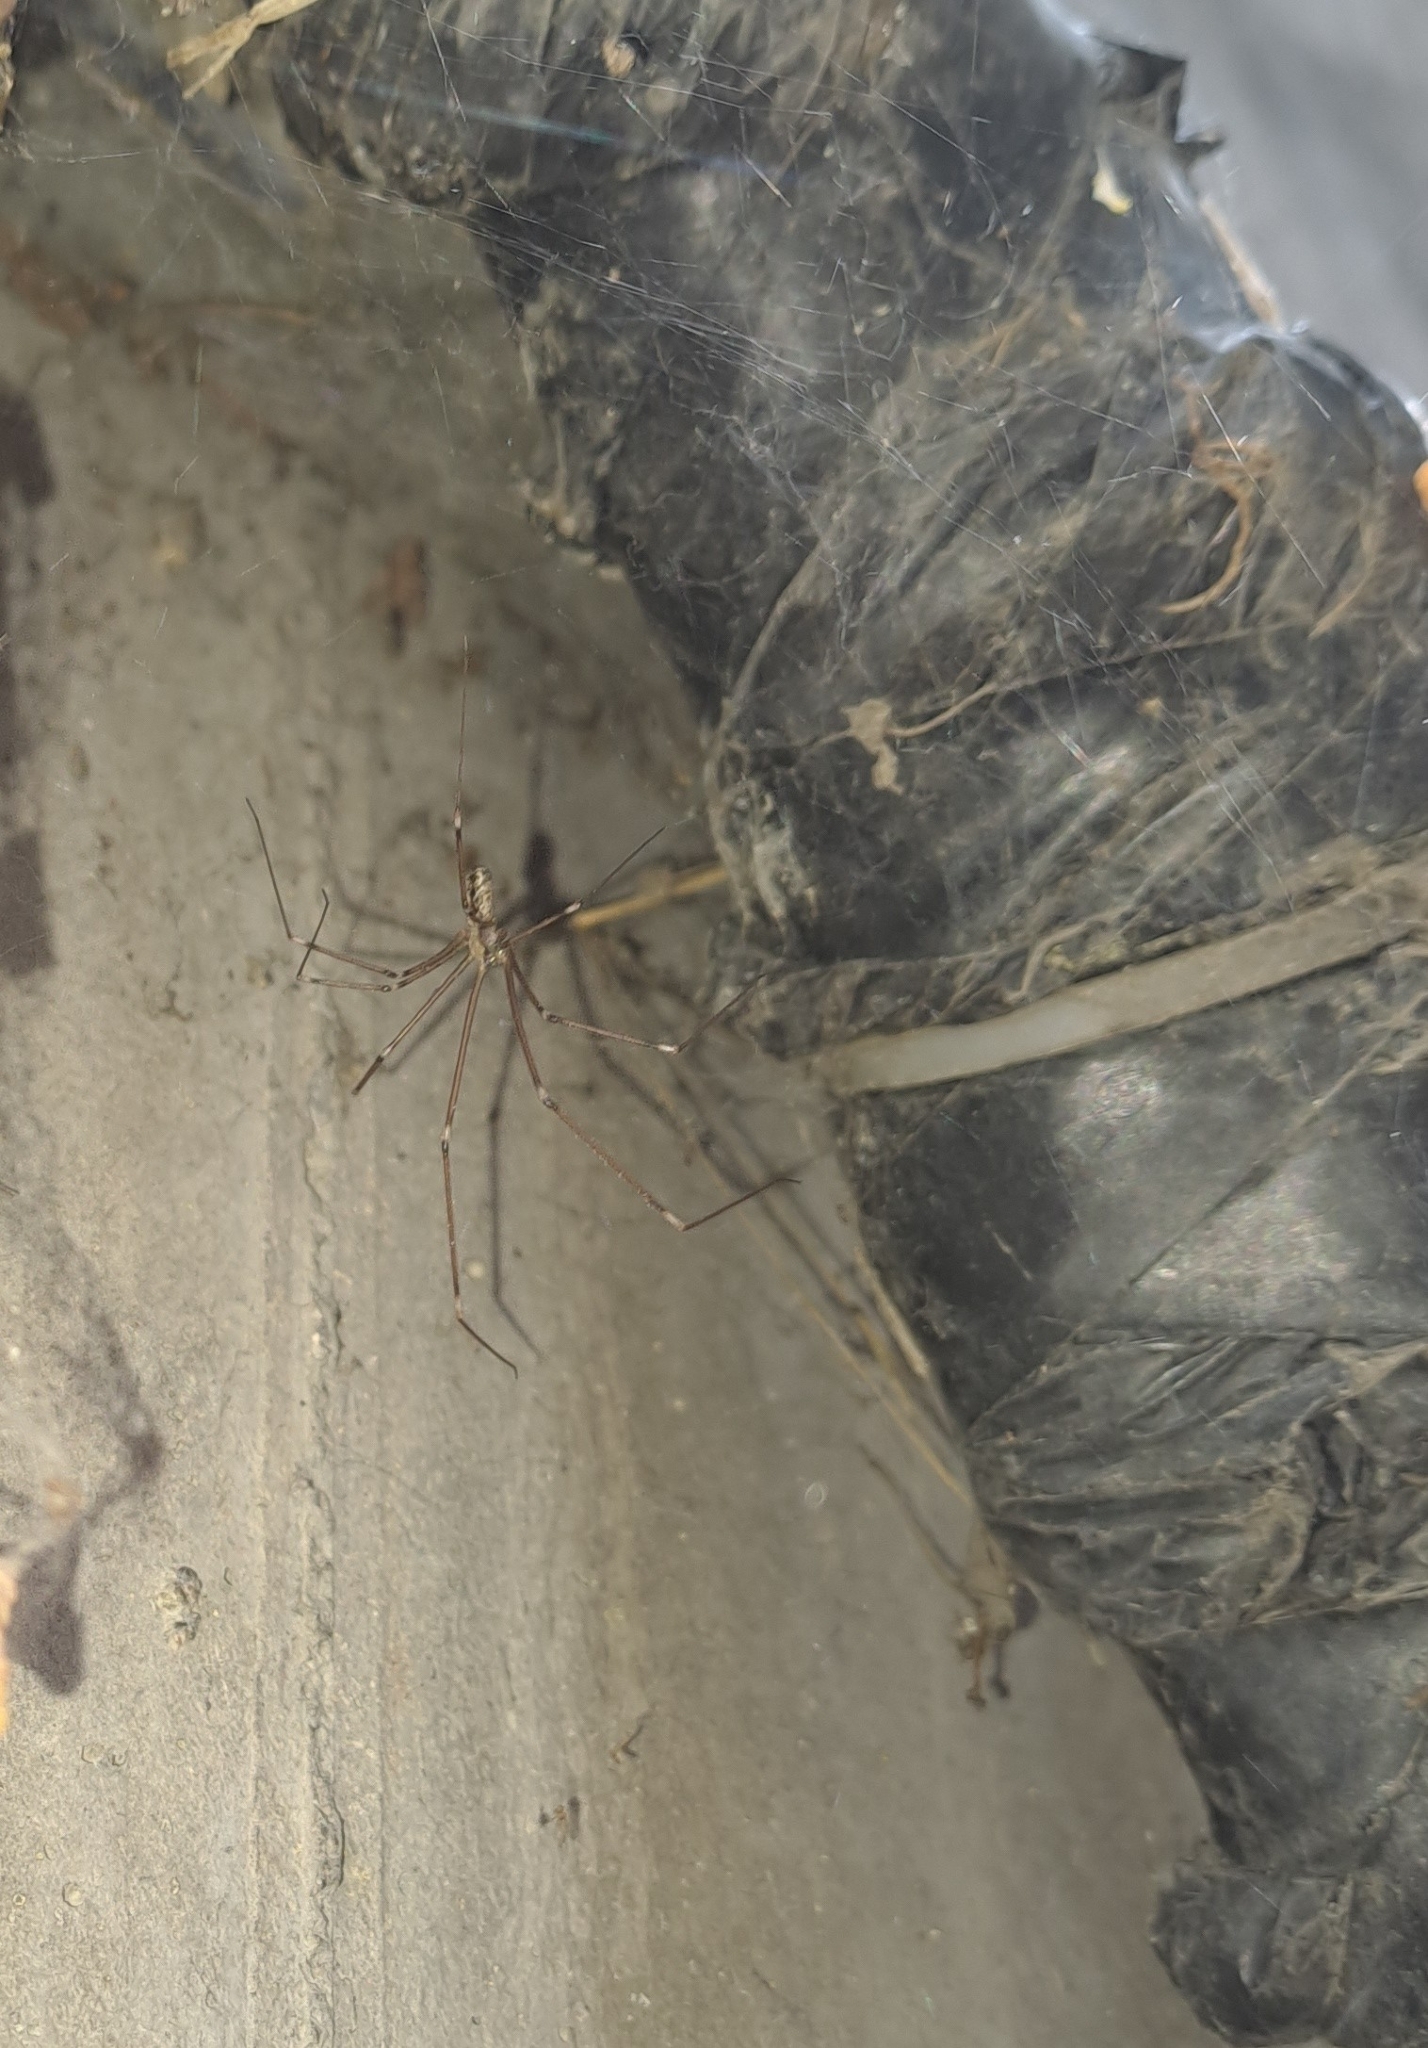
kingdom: Animalia
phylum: Arthropoda
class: Arachnida
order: Araneae
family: Pholcidae
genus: Holocnemus
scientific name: Holocnemus pluchei
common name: Marbled cellar spider
